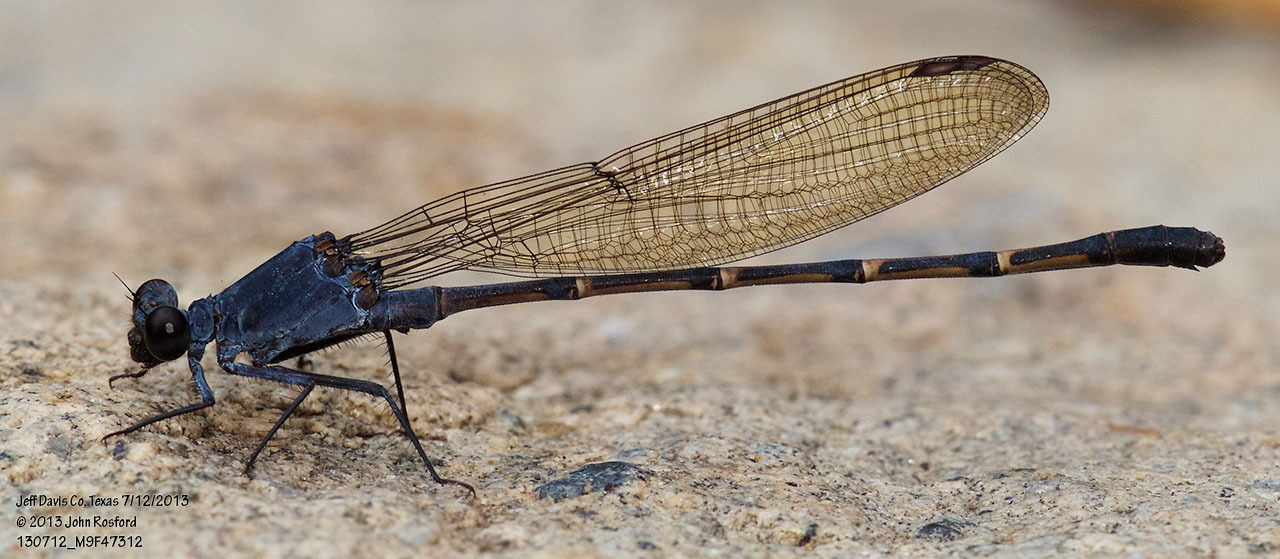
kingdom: Animalia
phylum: Arthropoda
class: Insecta
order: Odonata
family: Coenagrionidae
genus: Argia
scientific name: Argia lugens
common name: Sooty dancer
